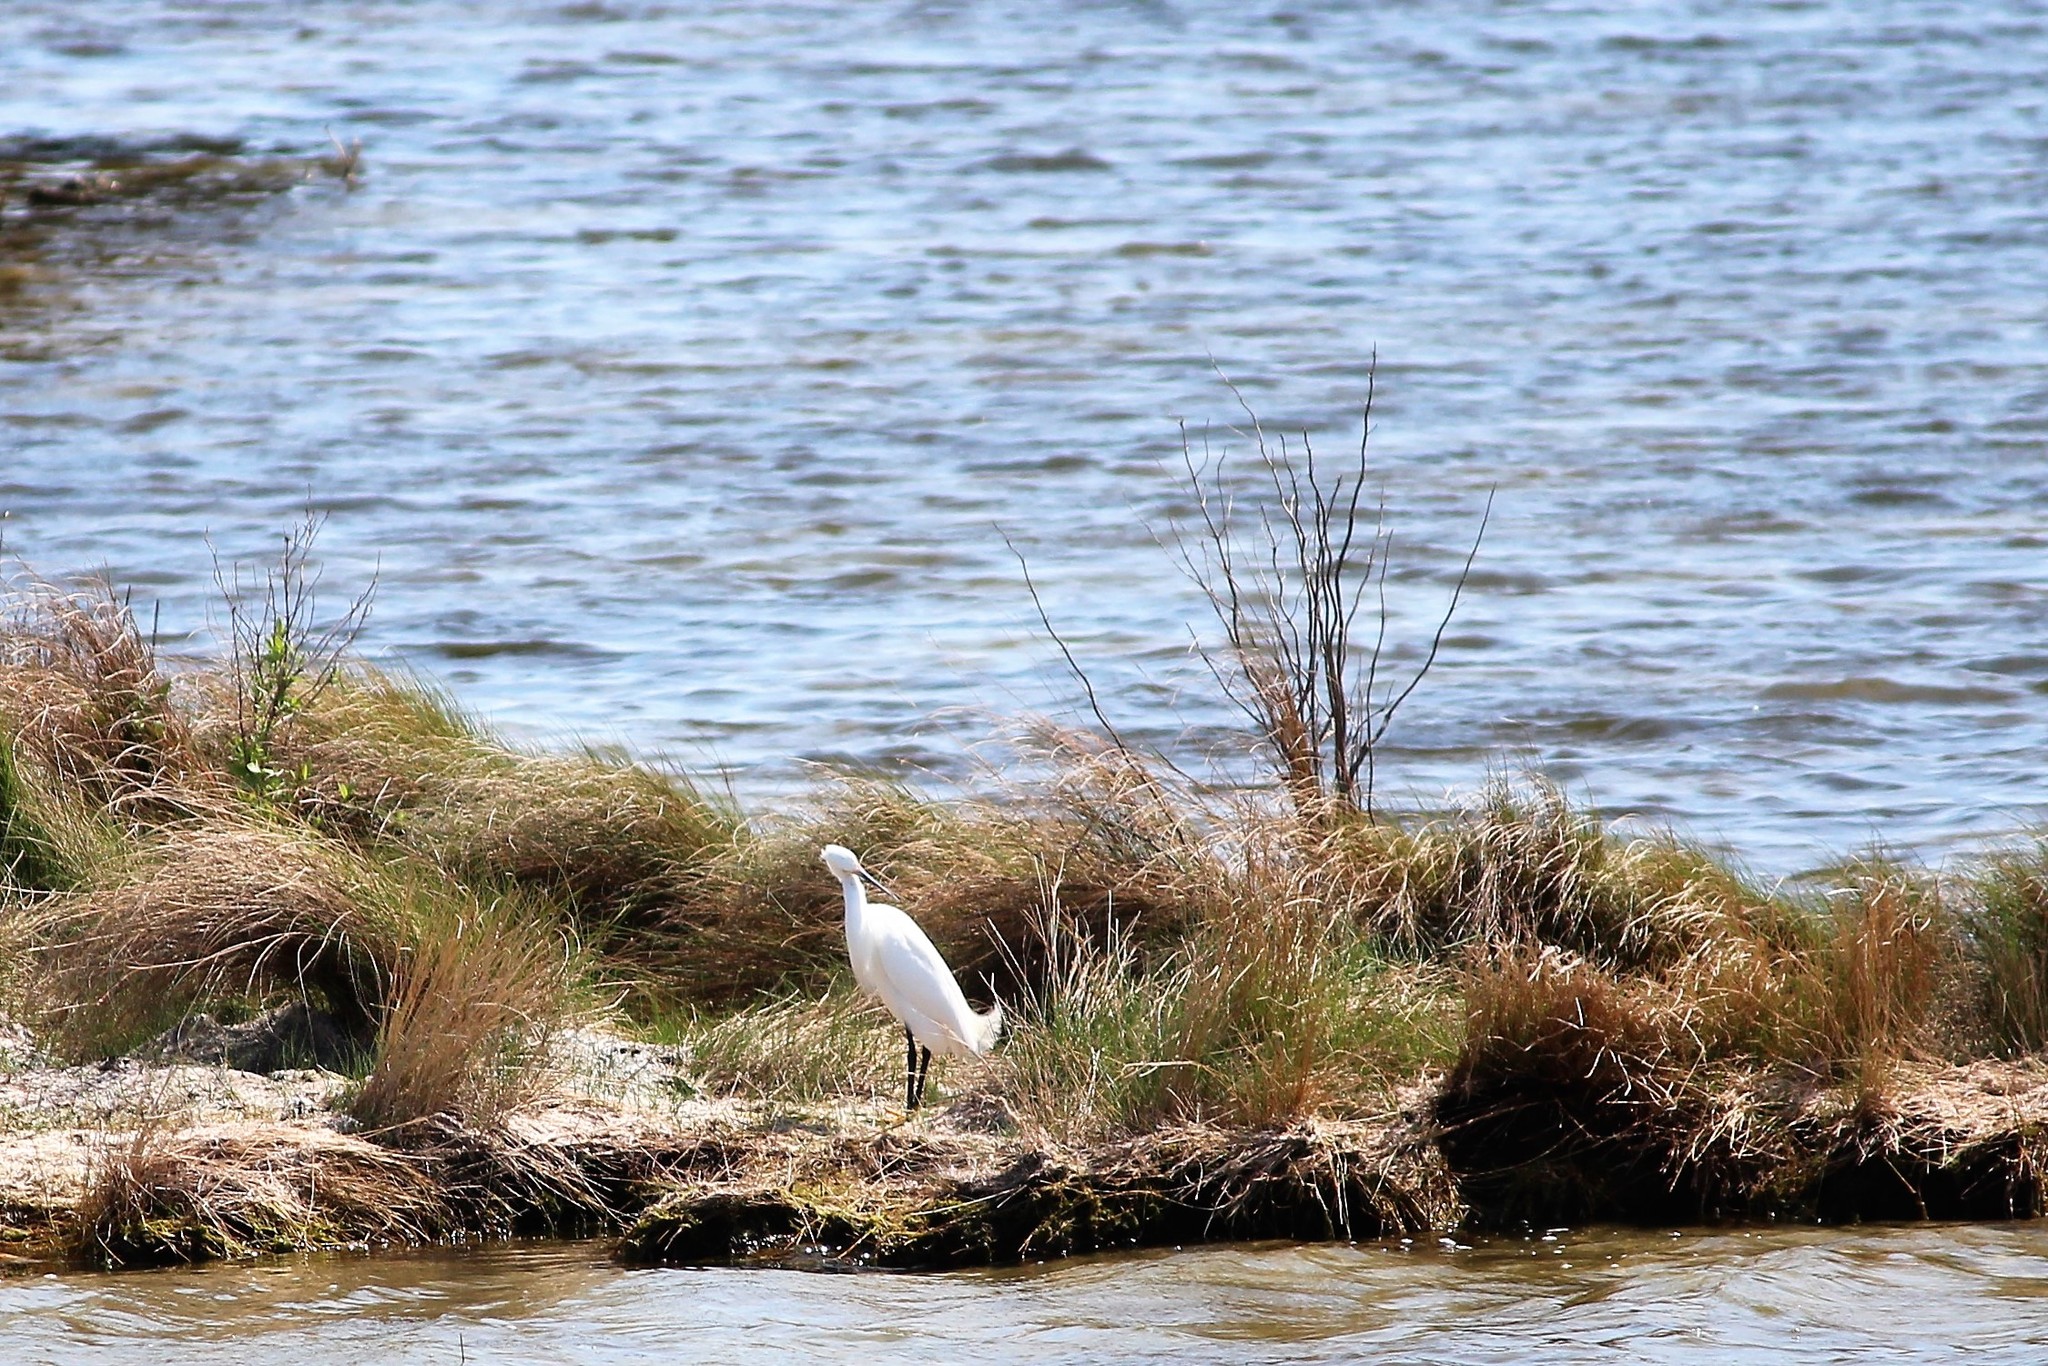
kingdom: Animalia
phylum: Chordata
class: Aves
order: Pelecaniformes
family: Ardeidae
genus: Egretta
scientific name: Egretta thula
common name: Snowy egret
